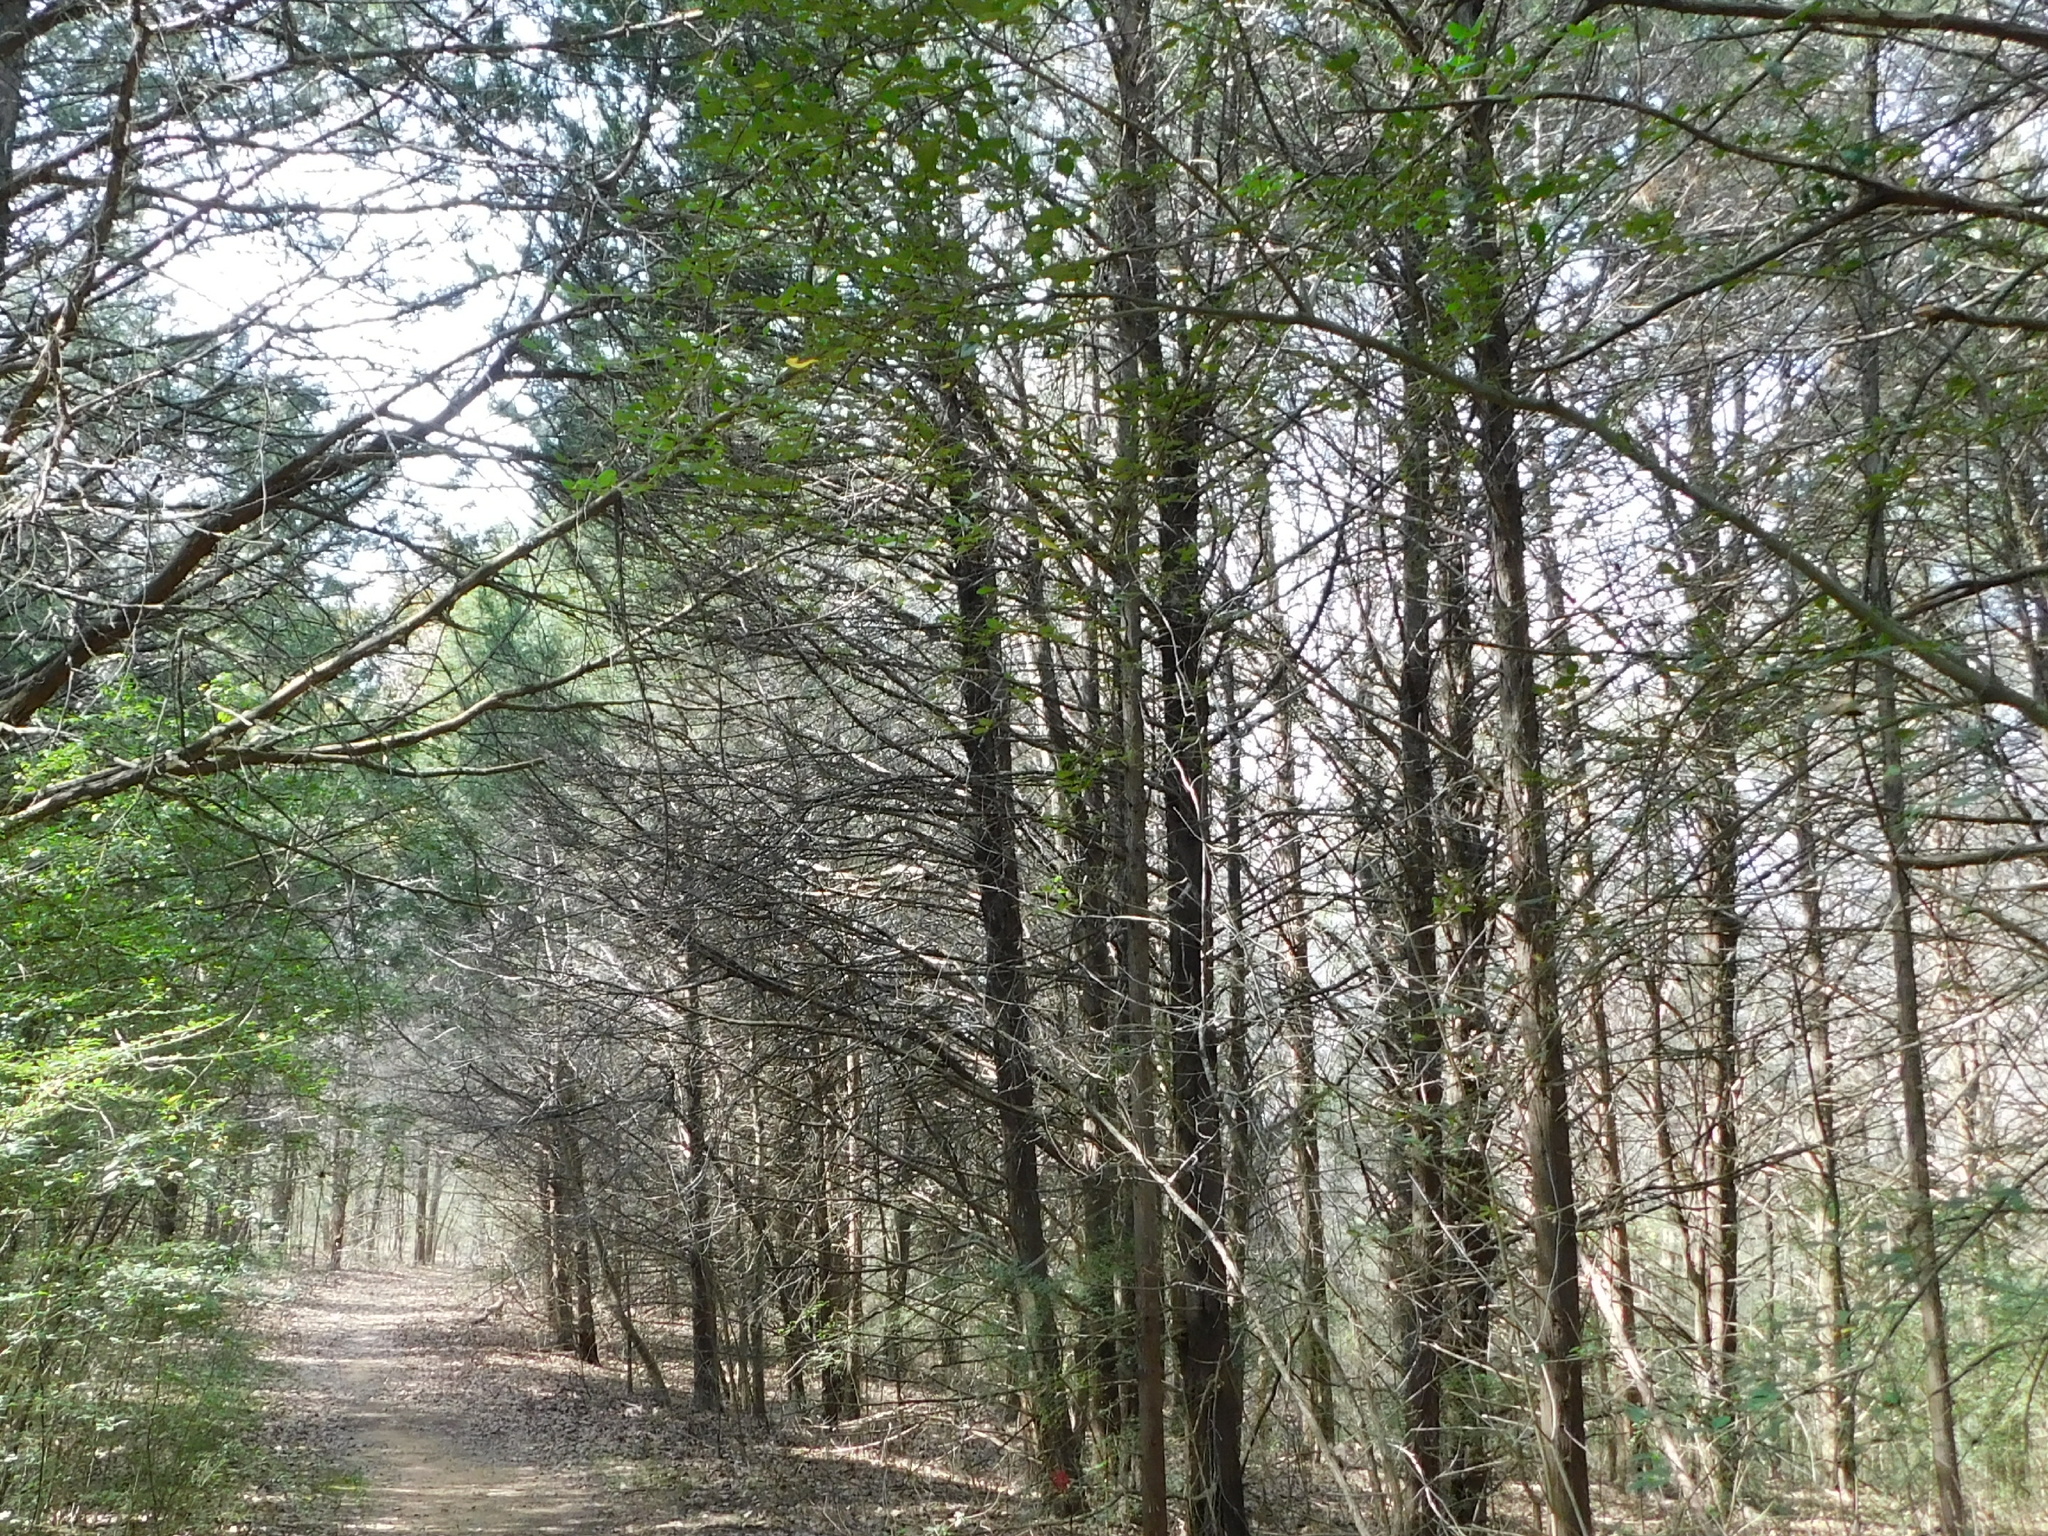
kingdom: Plantae
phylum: Tracheophyta
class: Pinopsida
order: Pinales
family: Cupressaceae
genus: Juniperus
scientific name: Juniperus virginiana
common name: Red juniper
